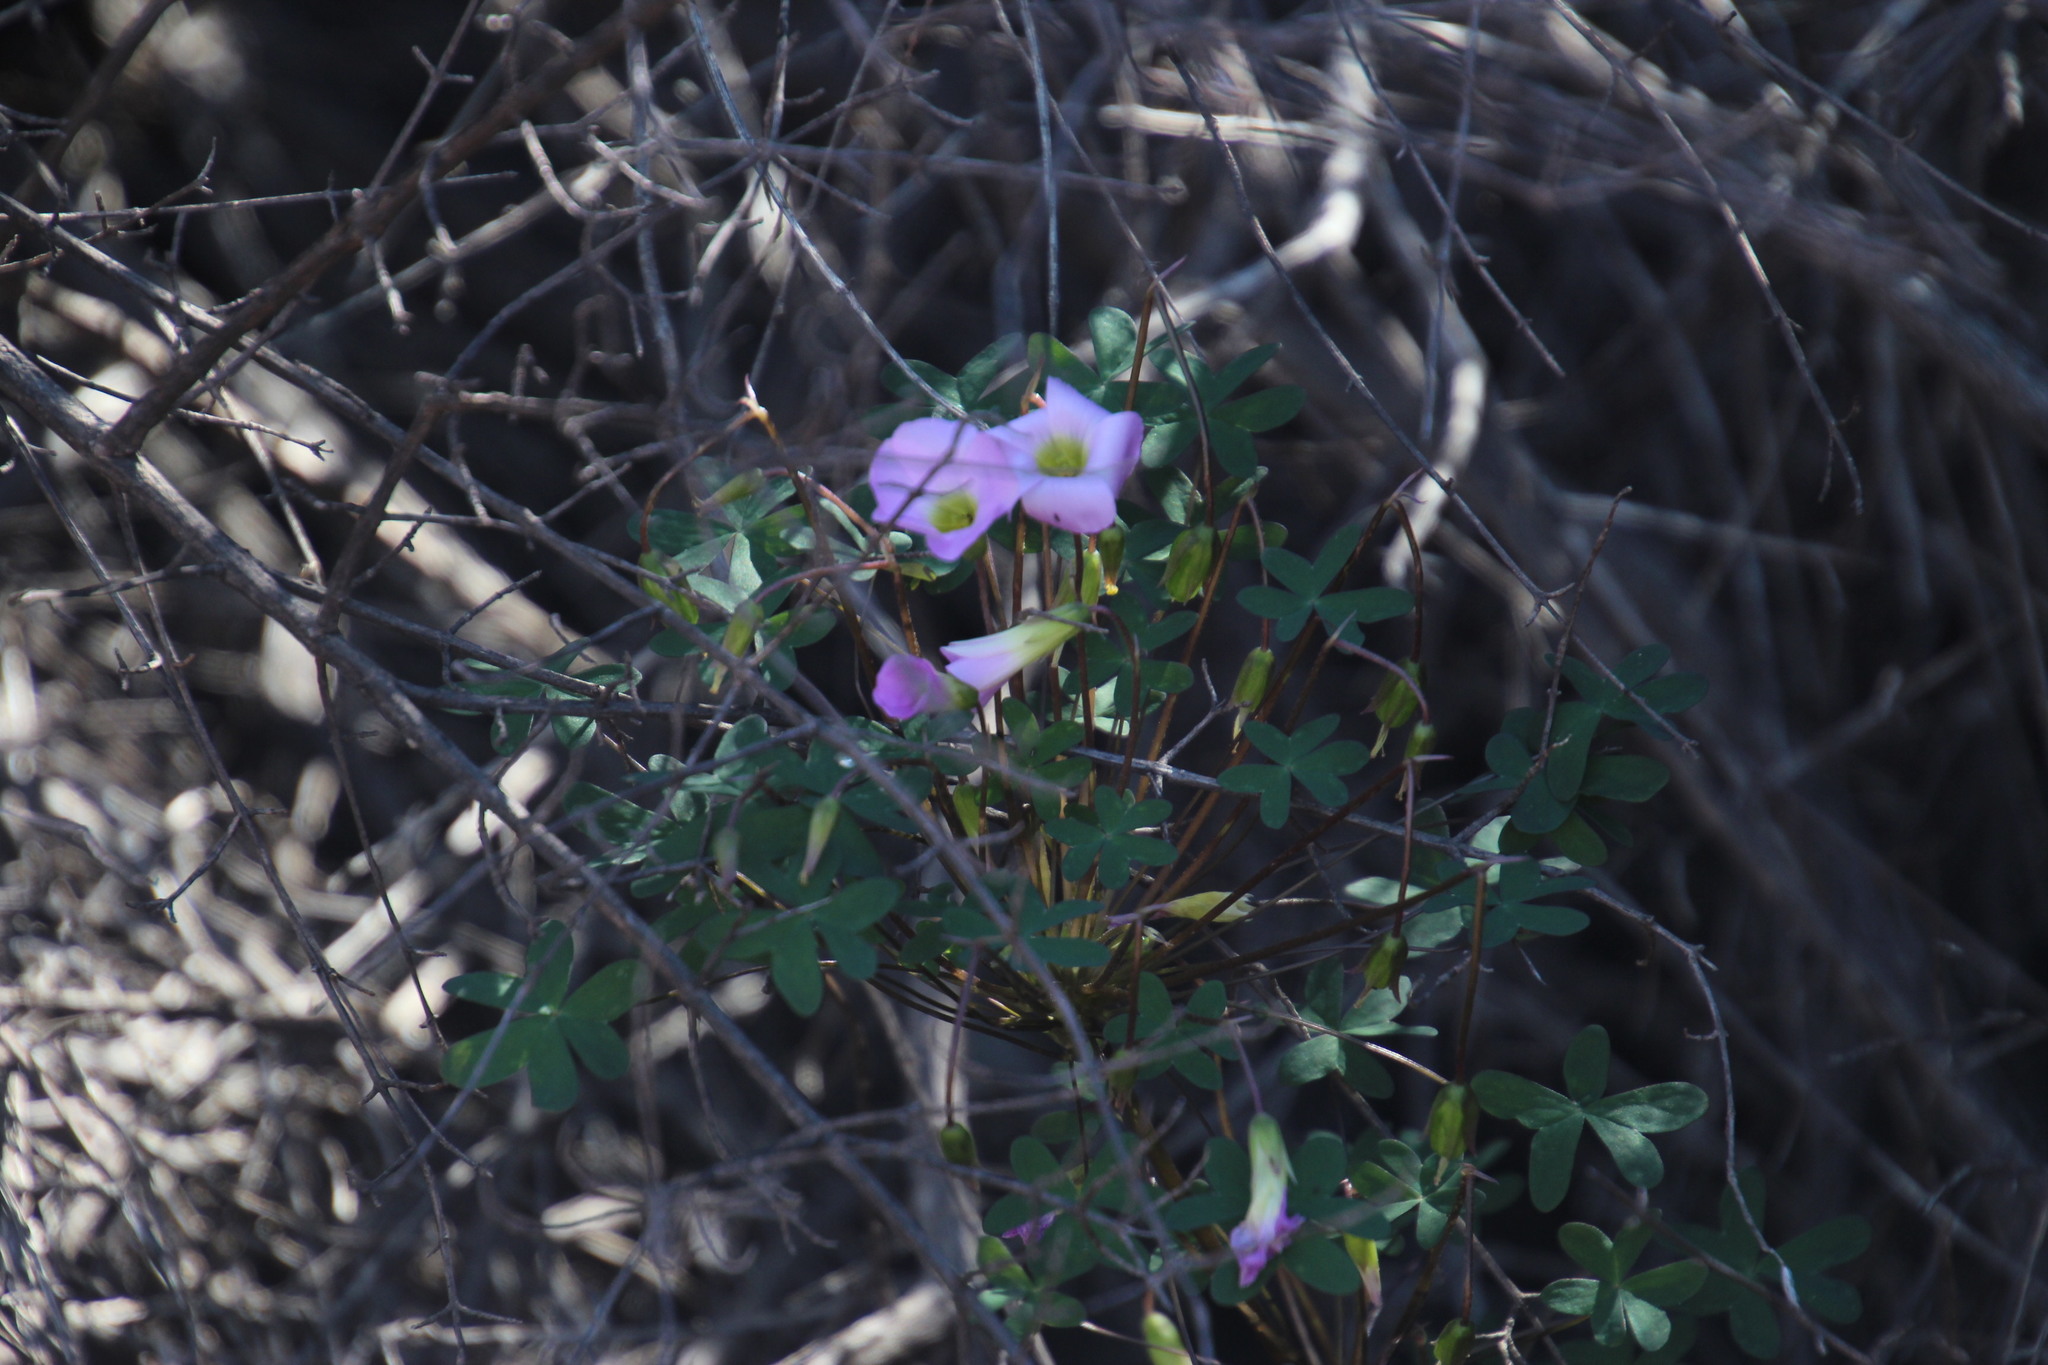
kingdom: Plantae
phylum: Tracheophyta
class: Magnoliopsida
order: Oxalidales
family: Oxalidaceae
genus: Oxalis
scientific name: Oxalis comosa
